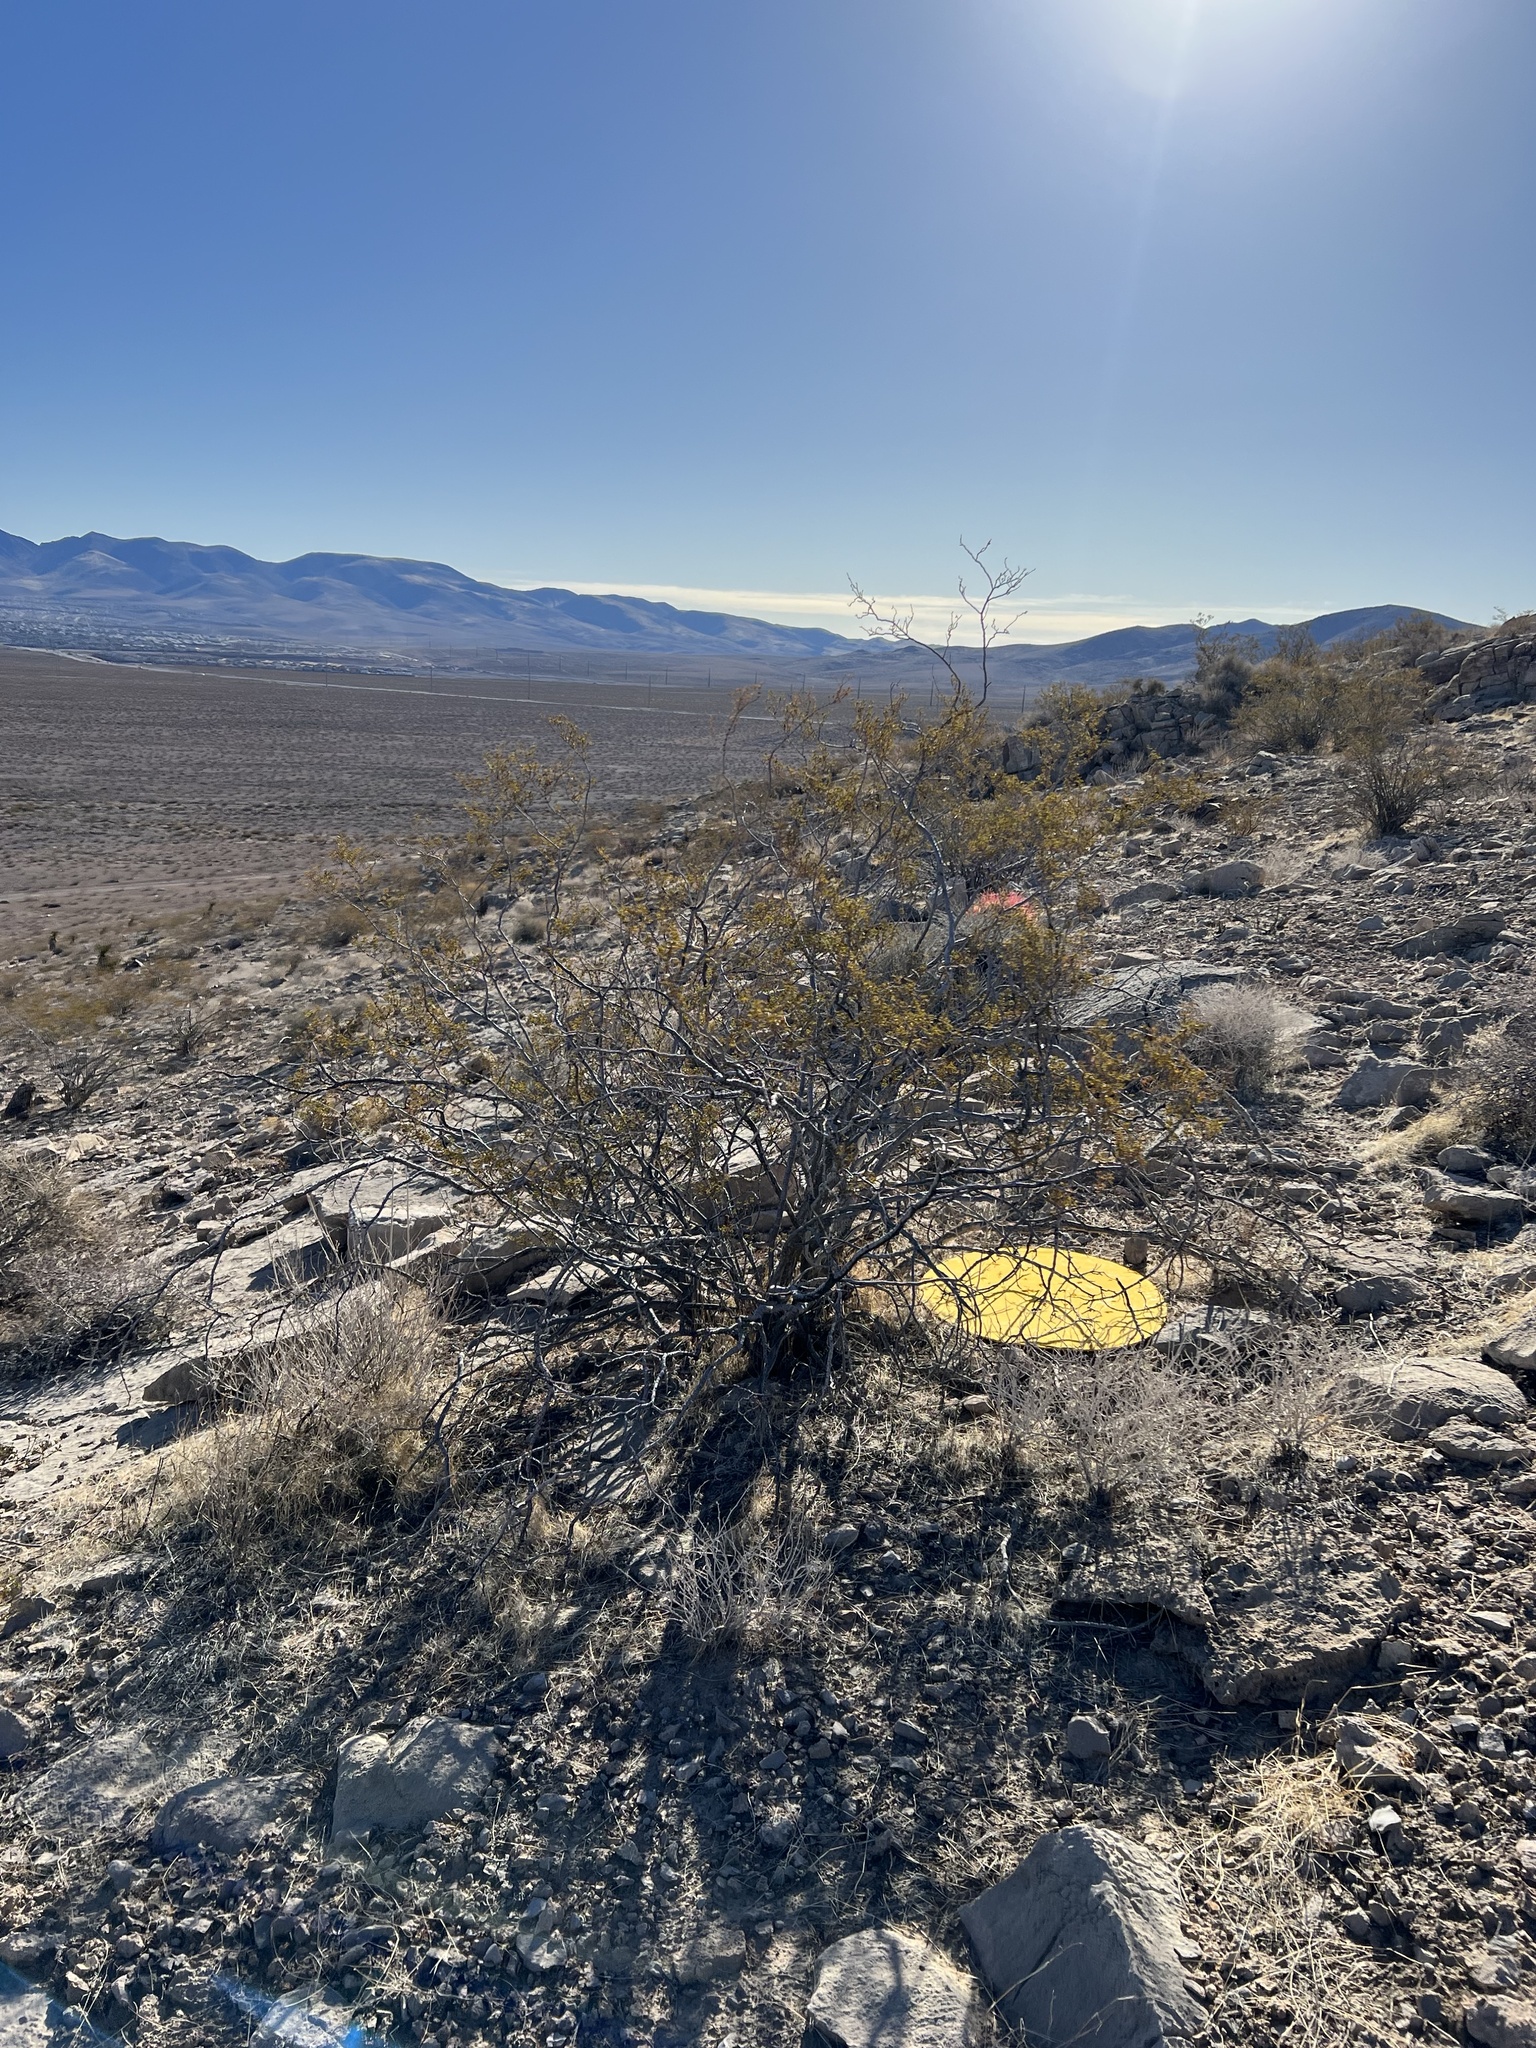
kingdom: Plantae
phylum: Tracheophyta
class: Magnoliopsida
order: Zygophyllales
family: Zygophyllaceae
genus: Larrea
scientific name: Larrea tridentata
